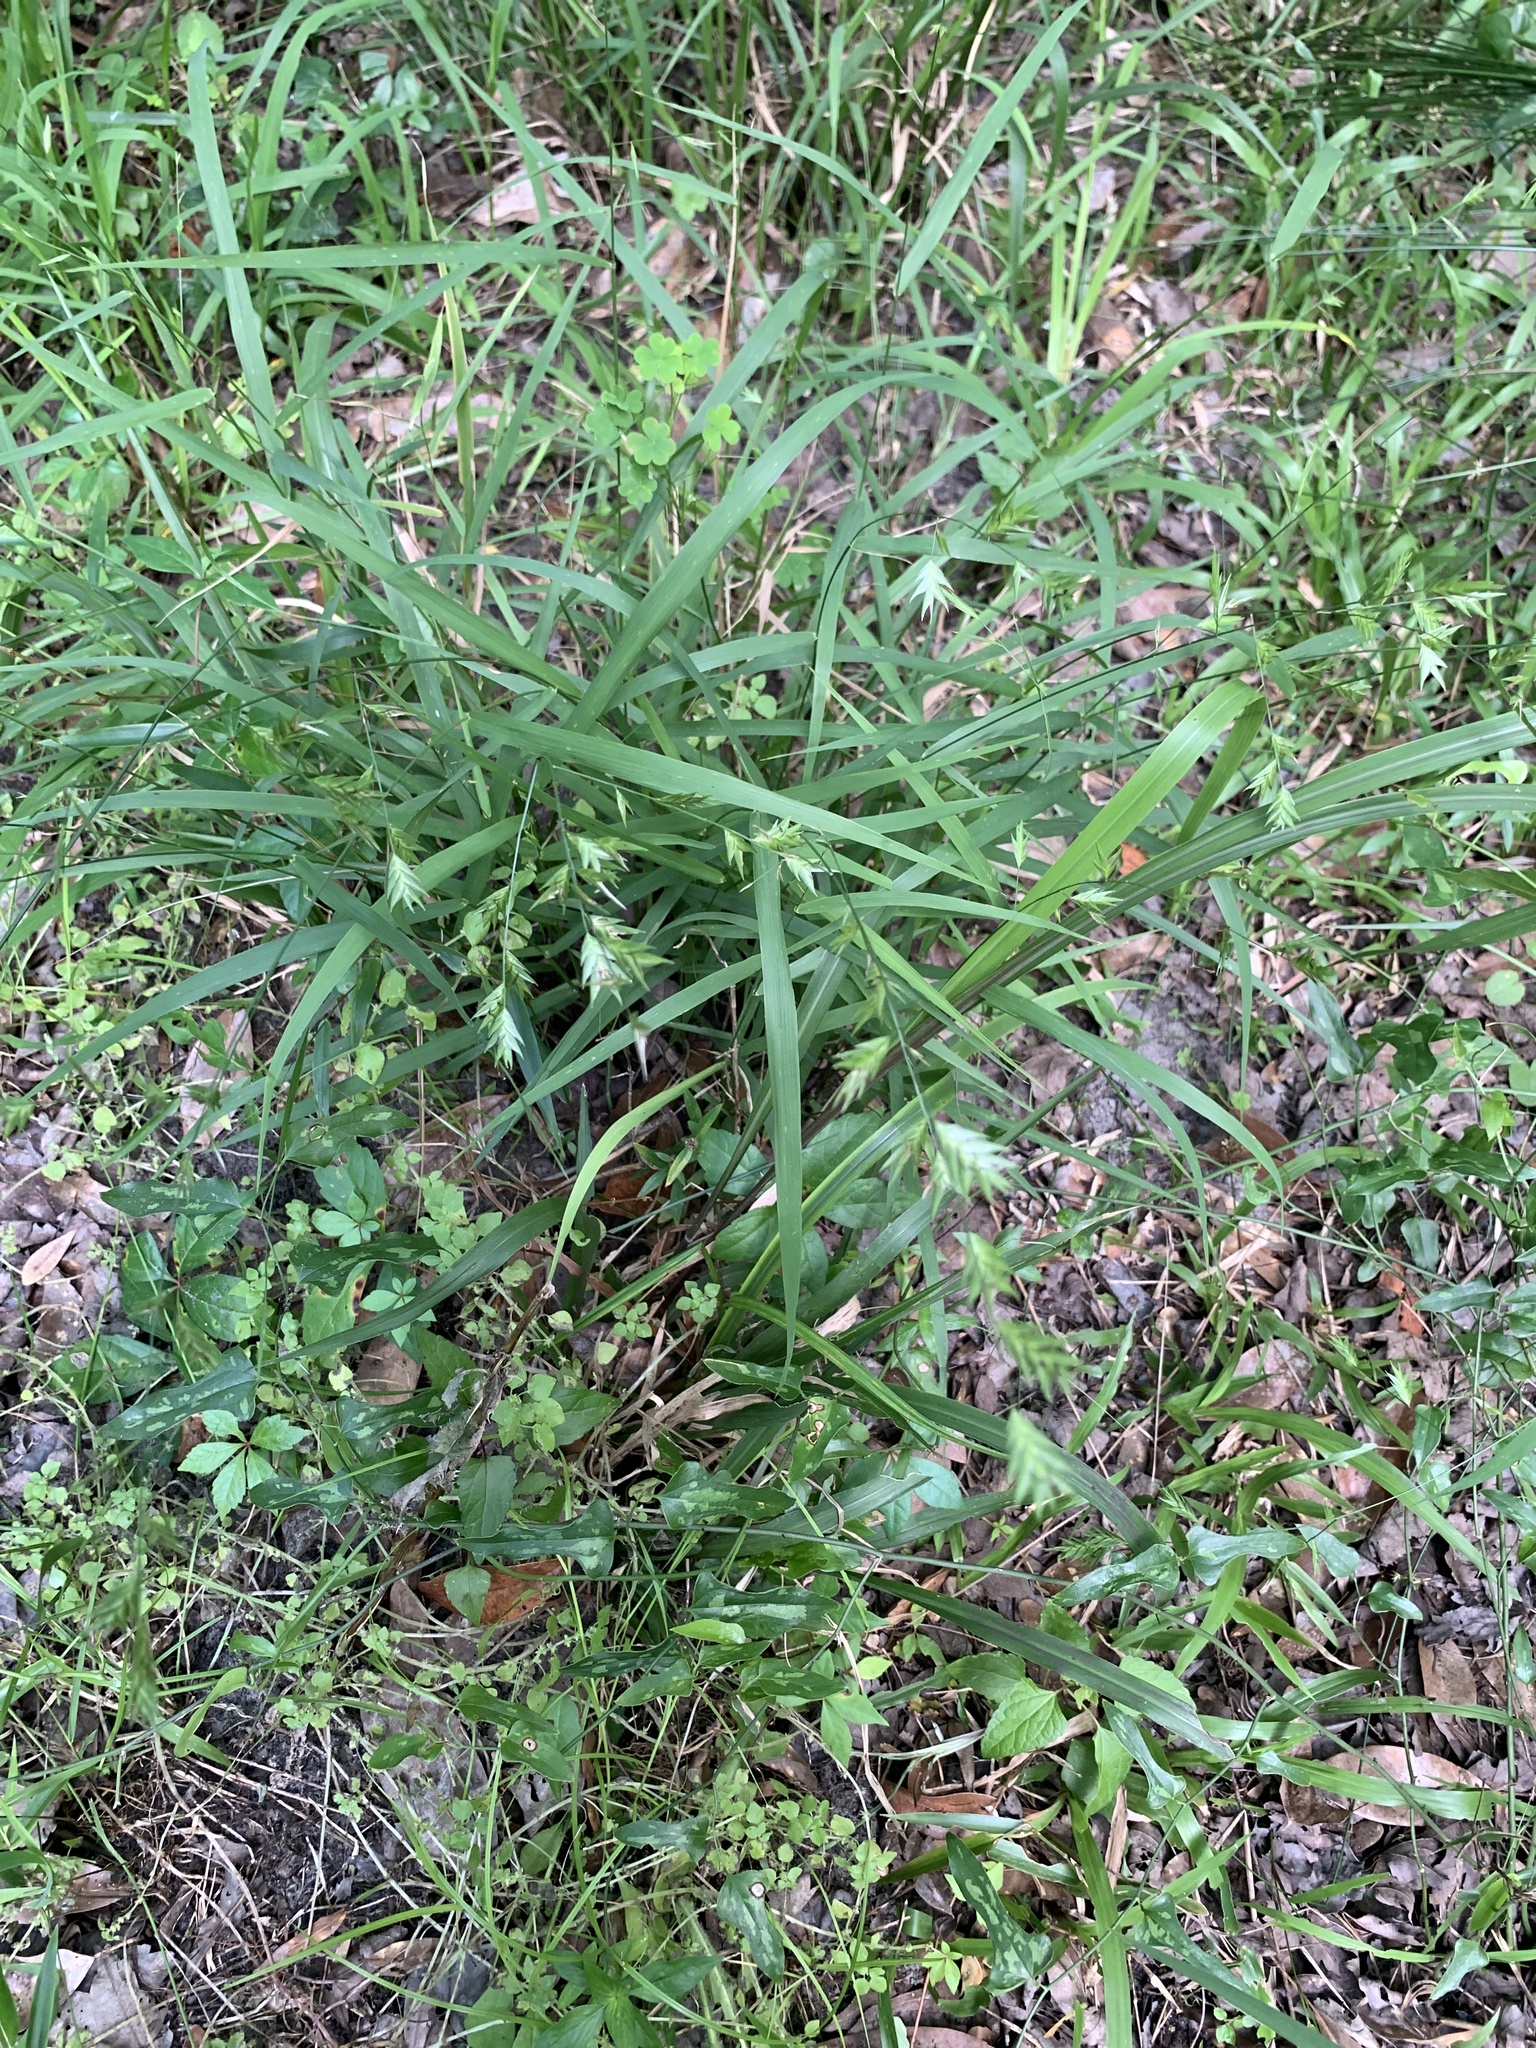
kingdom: Plantae
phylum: Tracheophyta
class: Liliopsida
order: Poales
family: Poaceae
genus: Chasmanthium
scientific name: Chasmanthium nitidum
